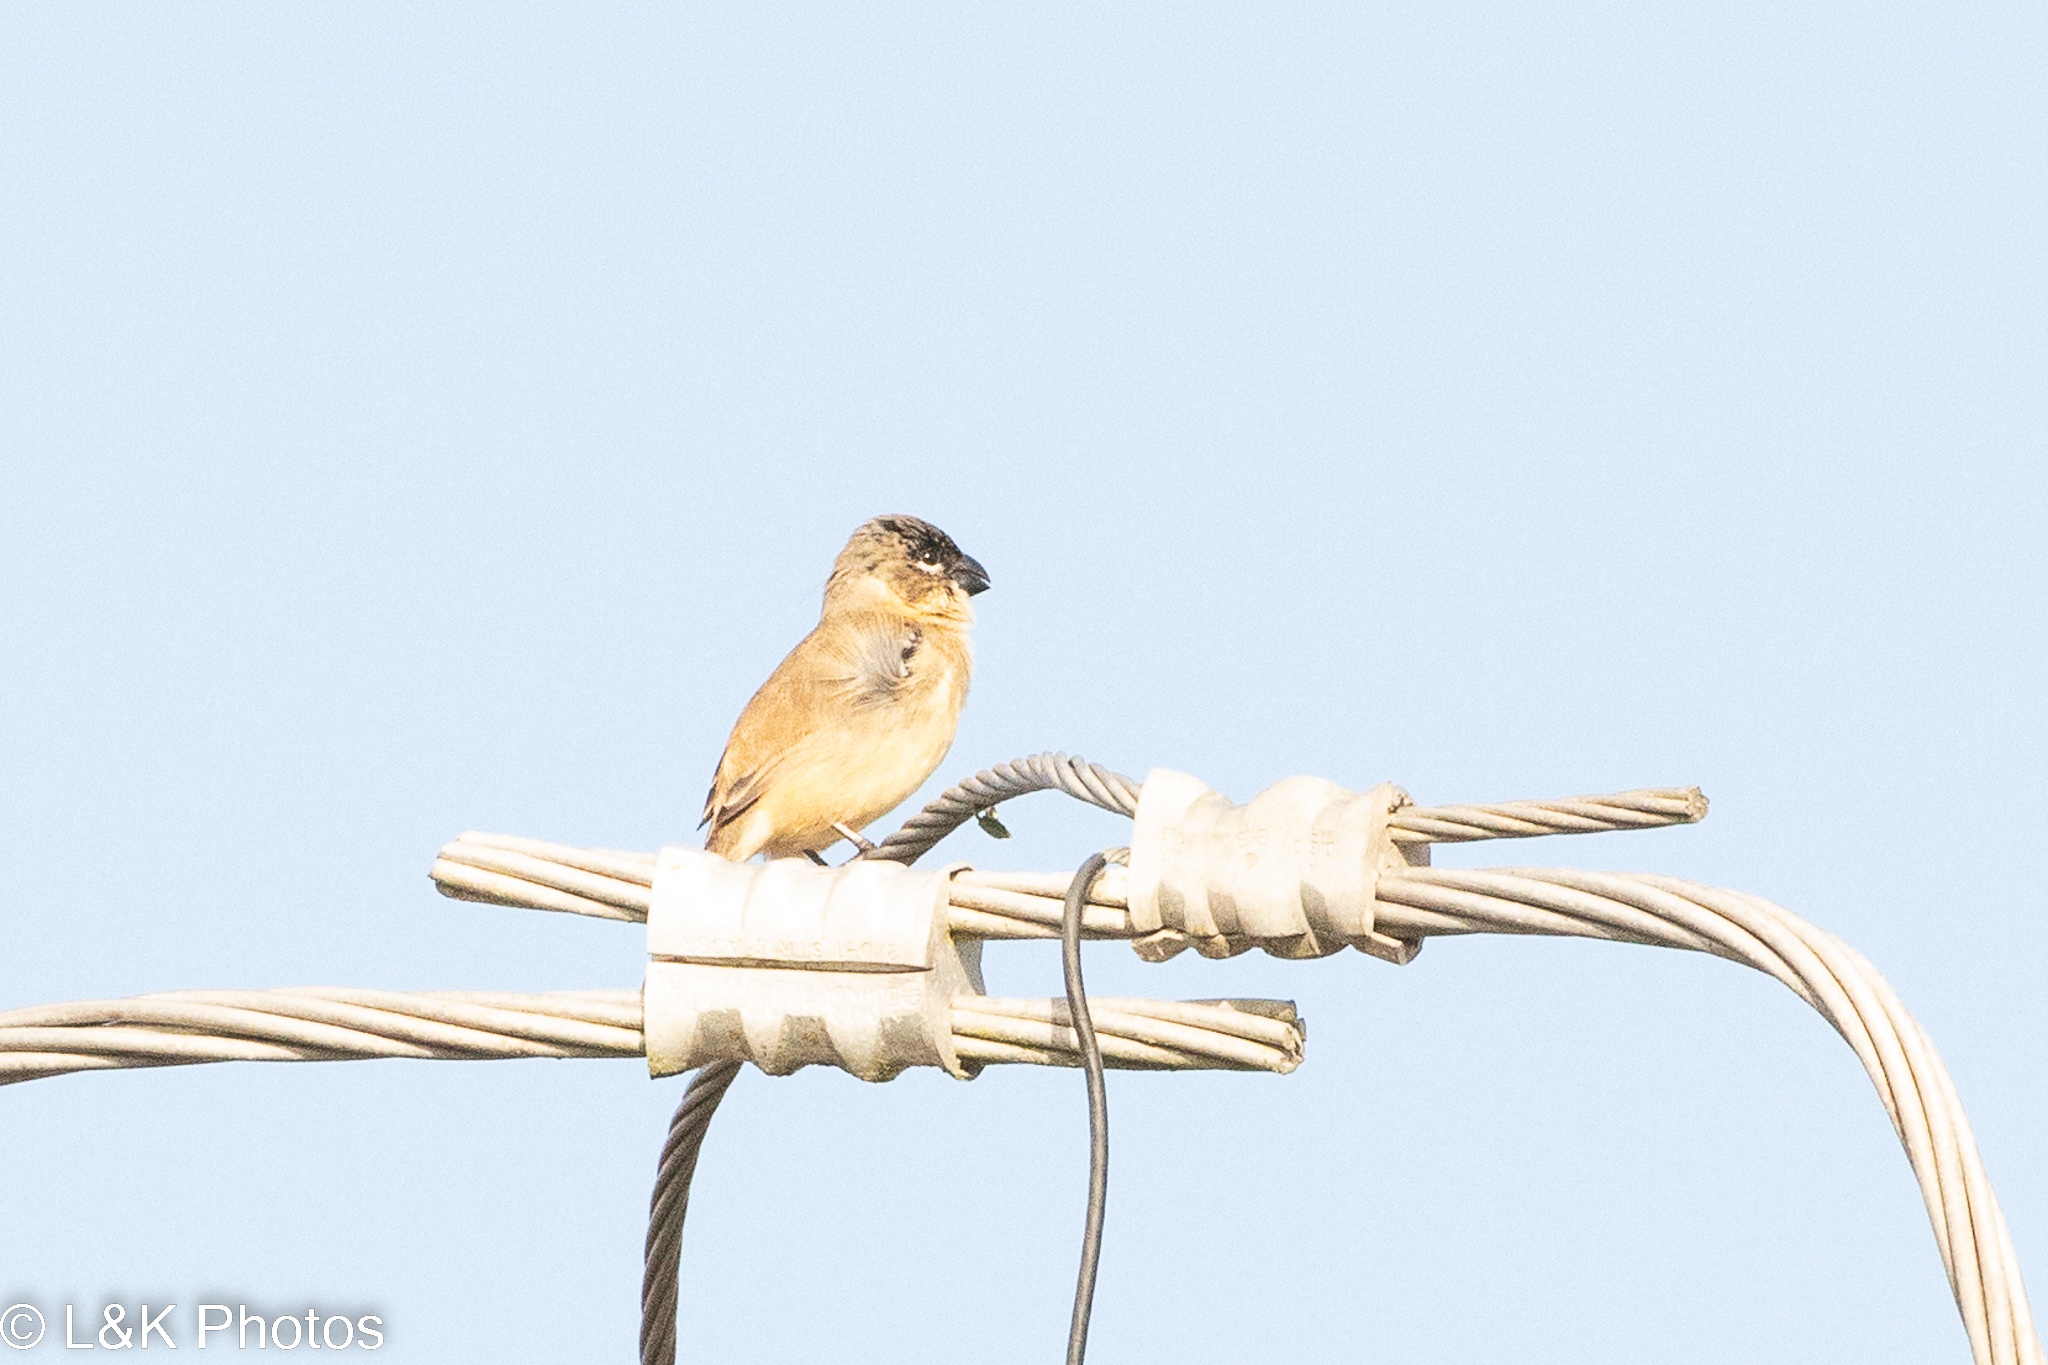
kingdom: Animalia
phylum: Chordata
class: Aves
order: Passeriformes
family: Thraupidae
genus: Sporophila
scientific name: Sporophila morelleti
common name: Morelet's seedeater
